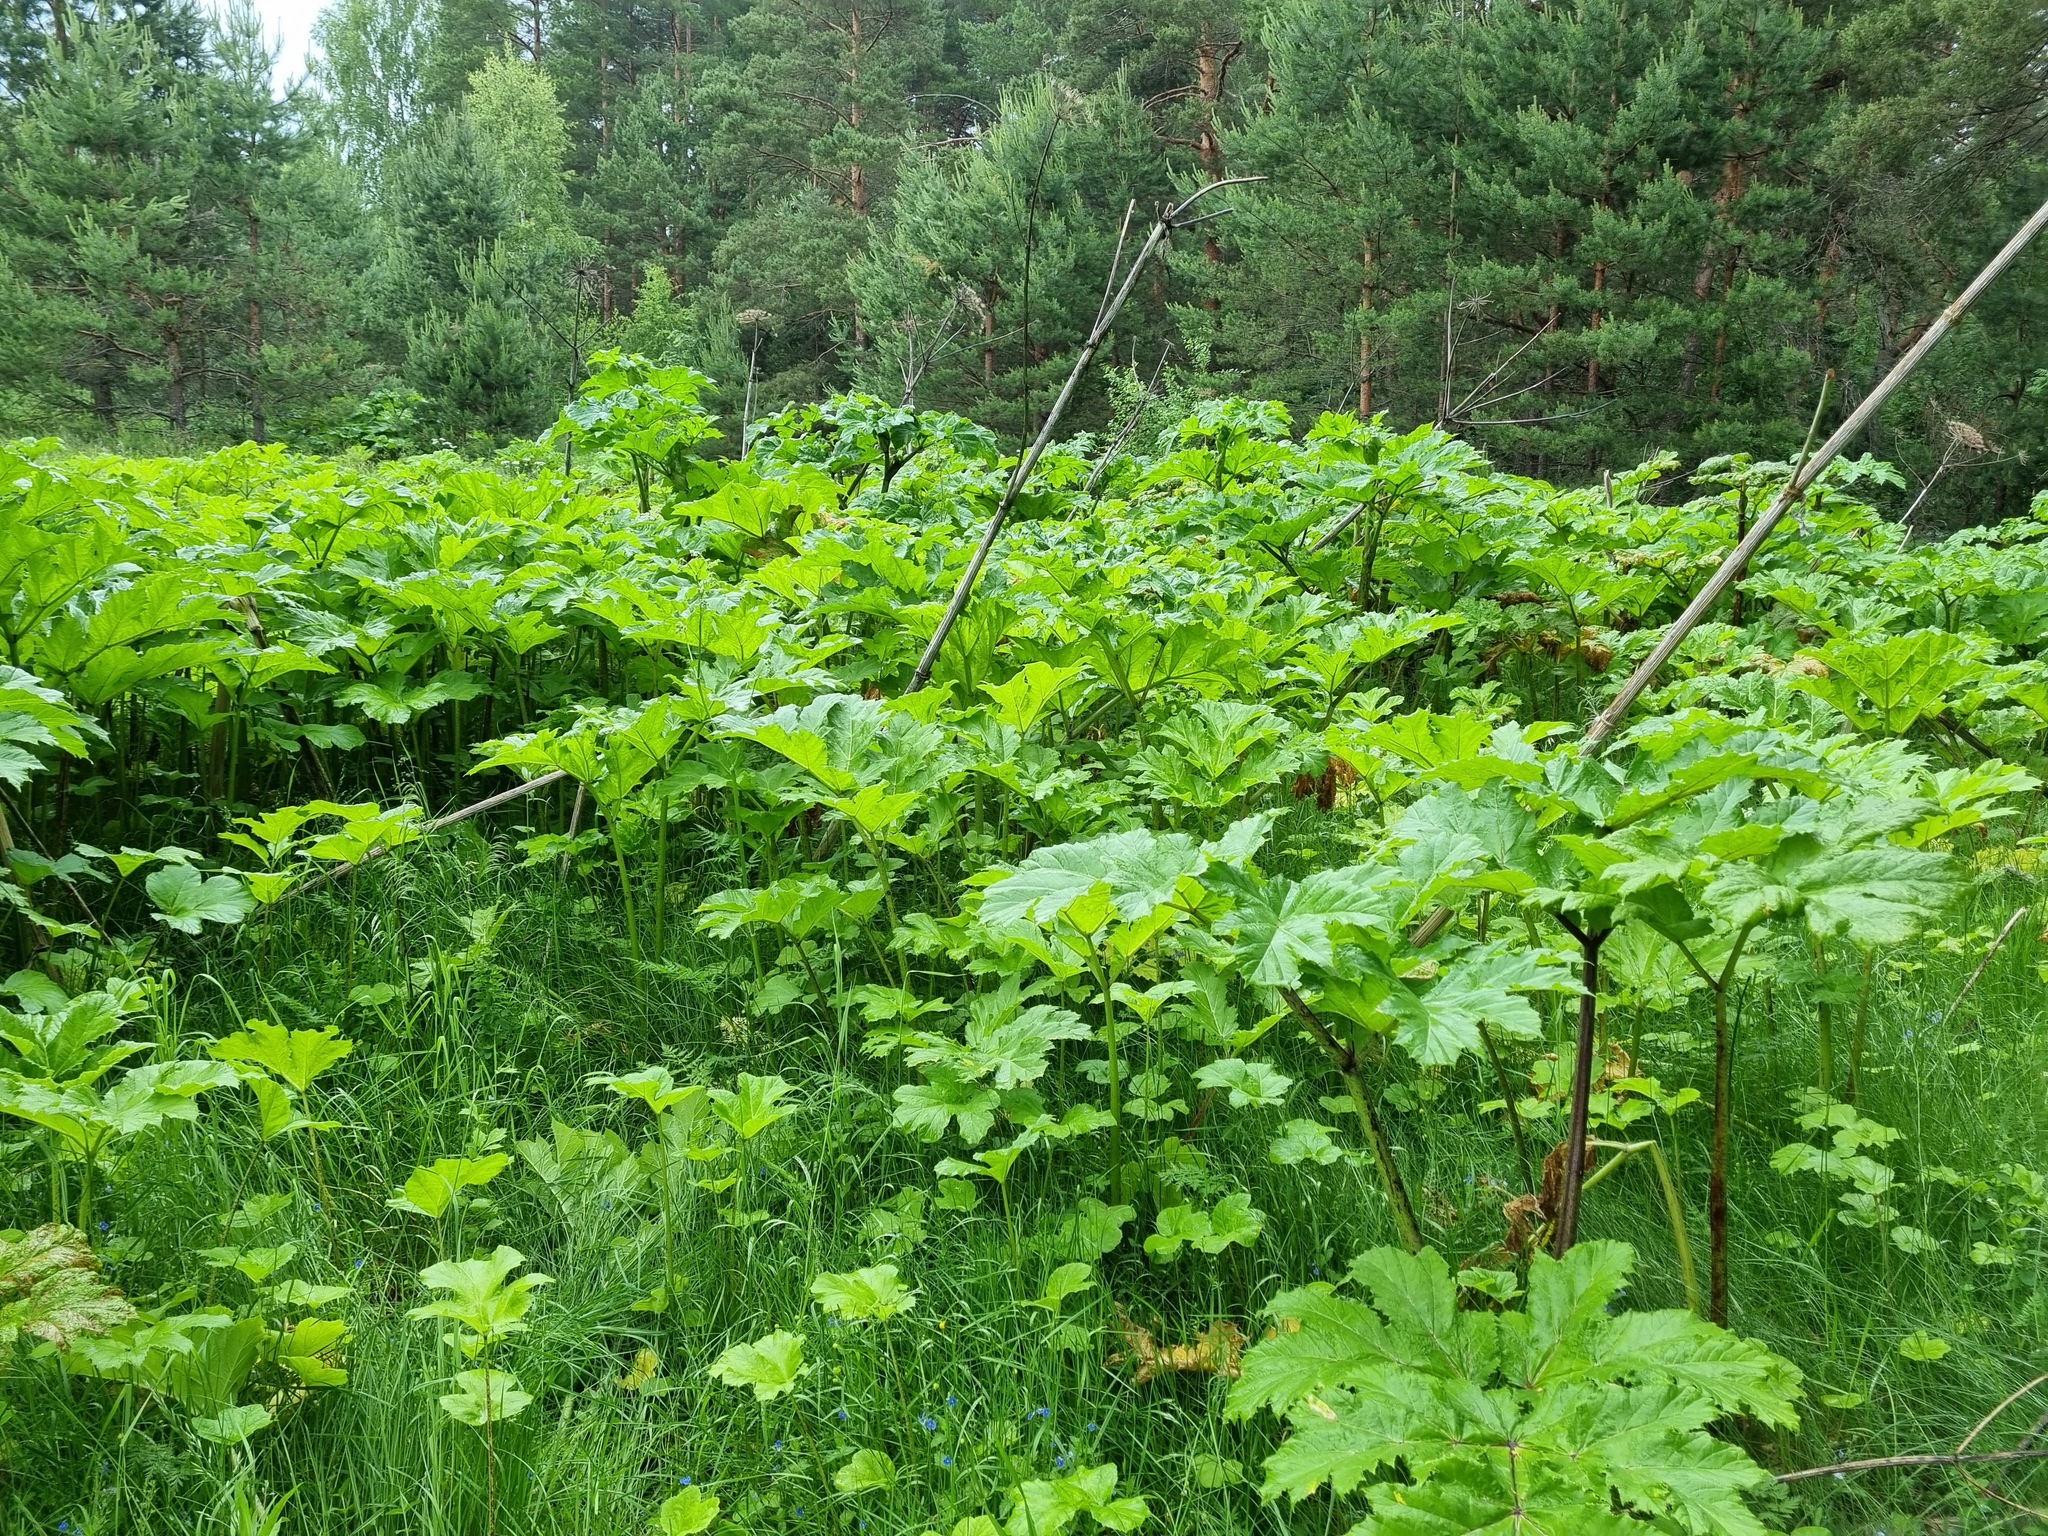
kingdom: Plantae
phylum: Tracheophyta
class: Magnoliopsida
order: Apiales
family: Apiaceae
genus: Heracleum
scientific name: Heracleum sosnowskyi
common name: Sosnowsky's hogweed
